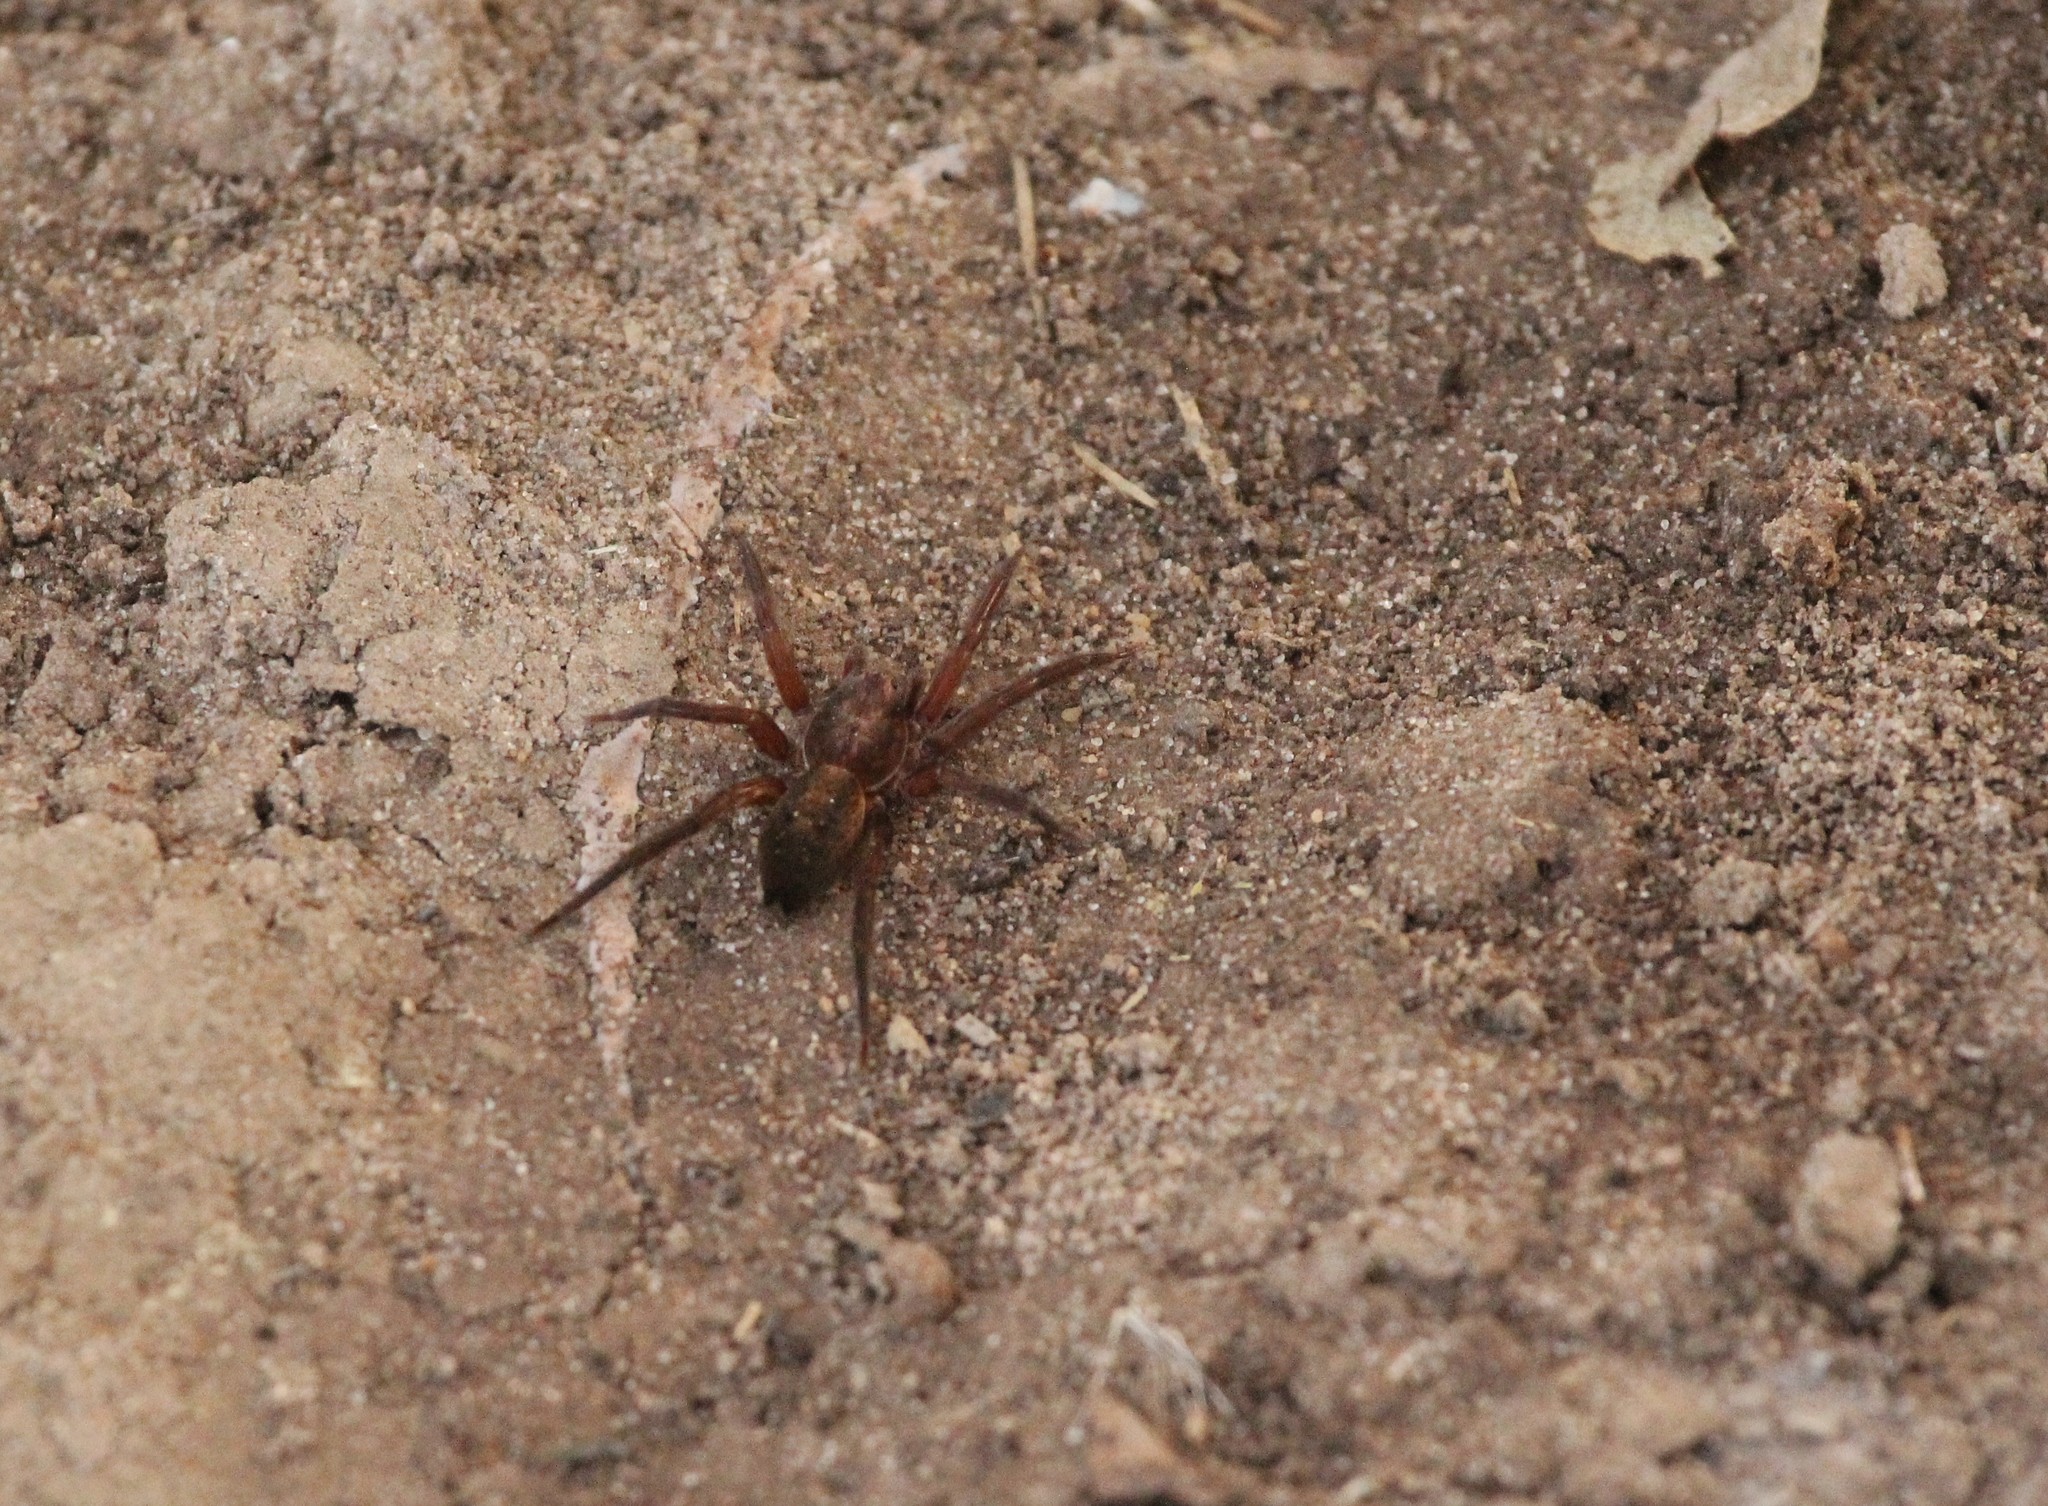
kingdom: Animalia
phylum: Arthropoda
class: Arachnida
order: Araneae
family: Ctenidae
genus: Asthenoctenus
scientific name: Asthenoctenus borellii
